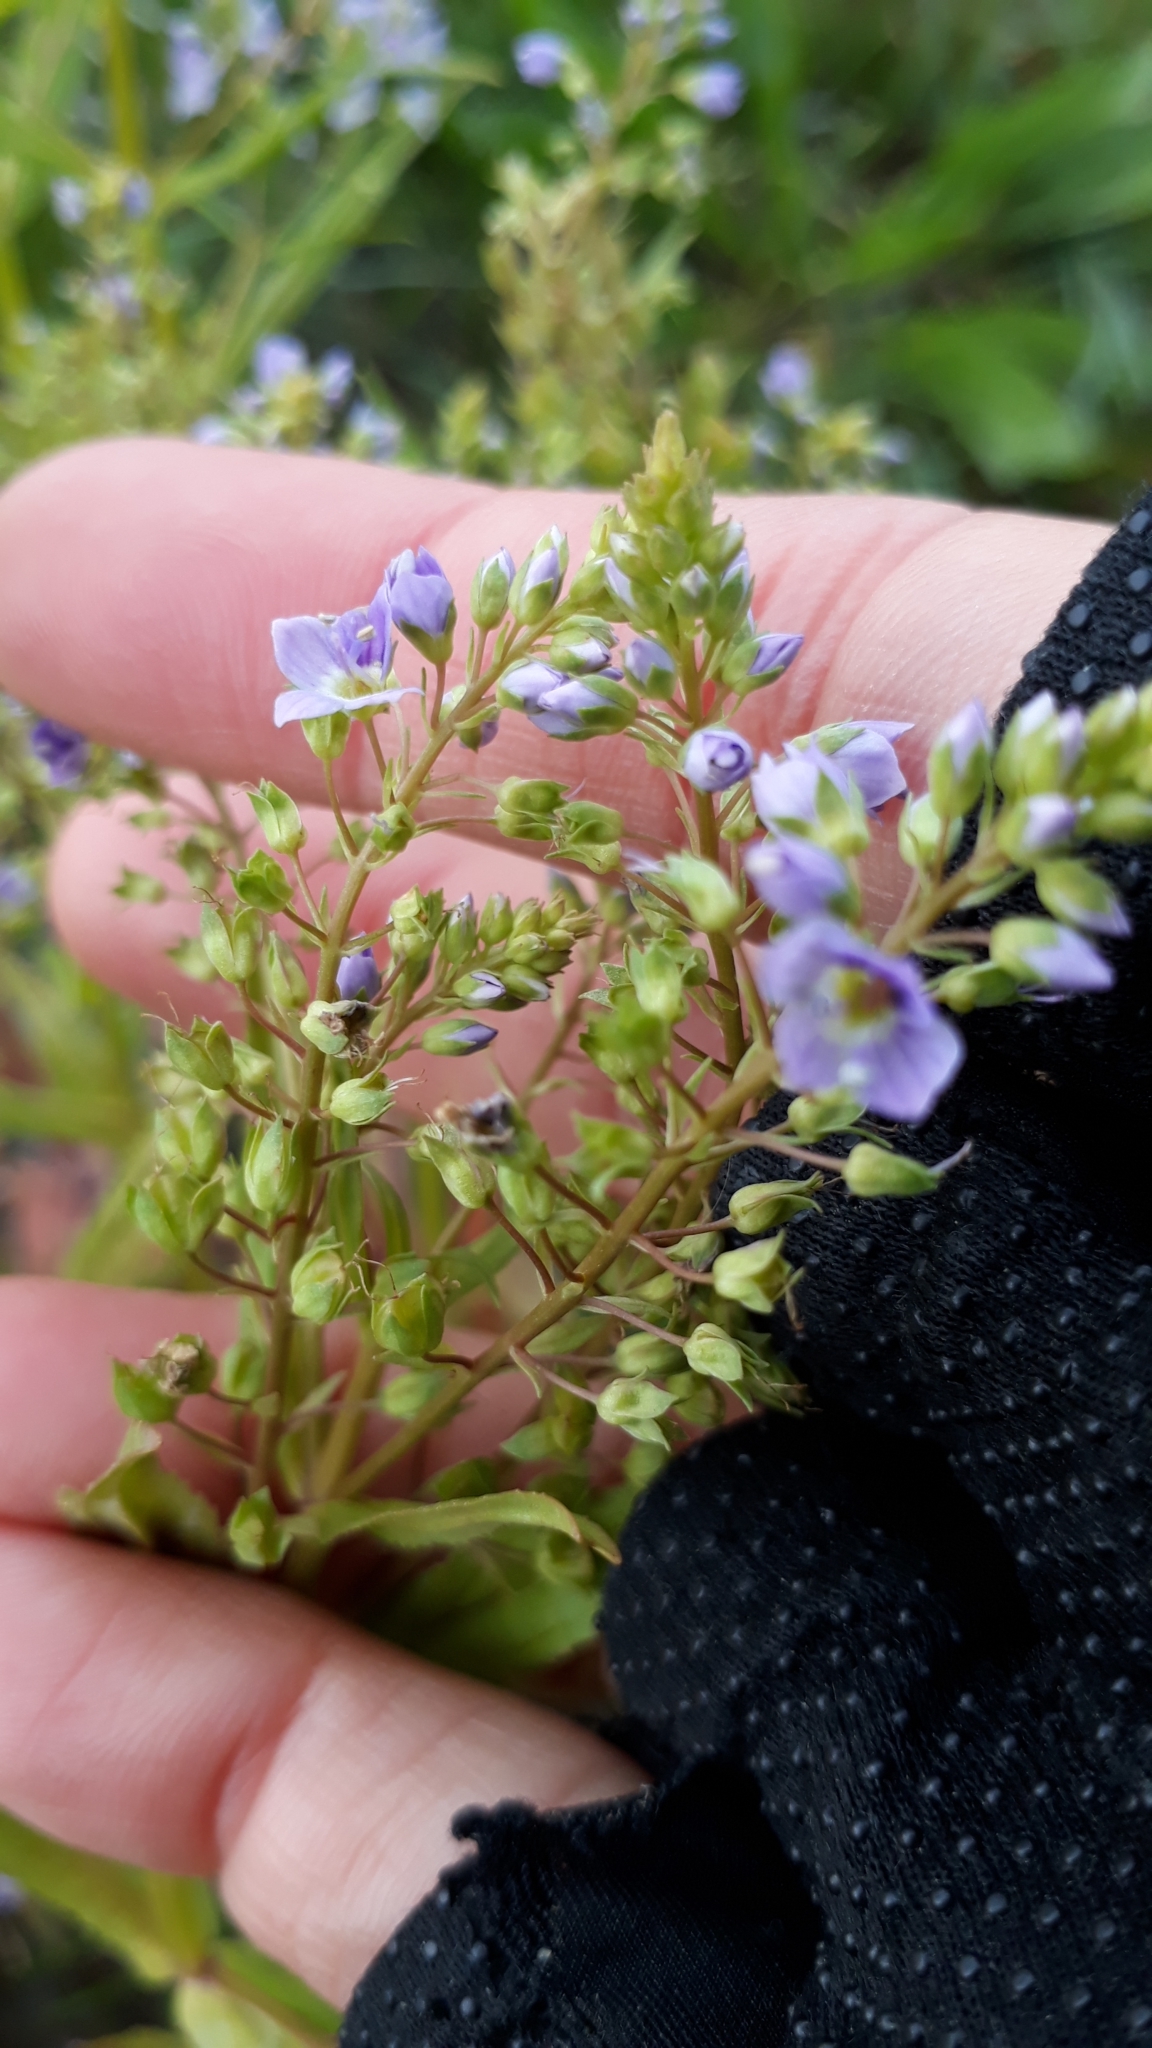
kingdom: Plantae
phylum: Tracheophyta
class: Magnoliopsida
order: Lamiales
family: Plantaginaceae
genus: Veronica
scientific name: Veronica anagallis-aquatica
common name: Water speedwell
